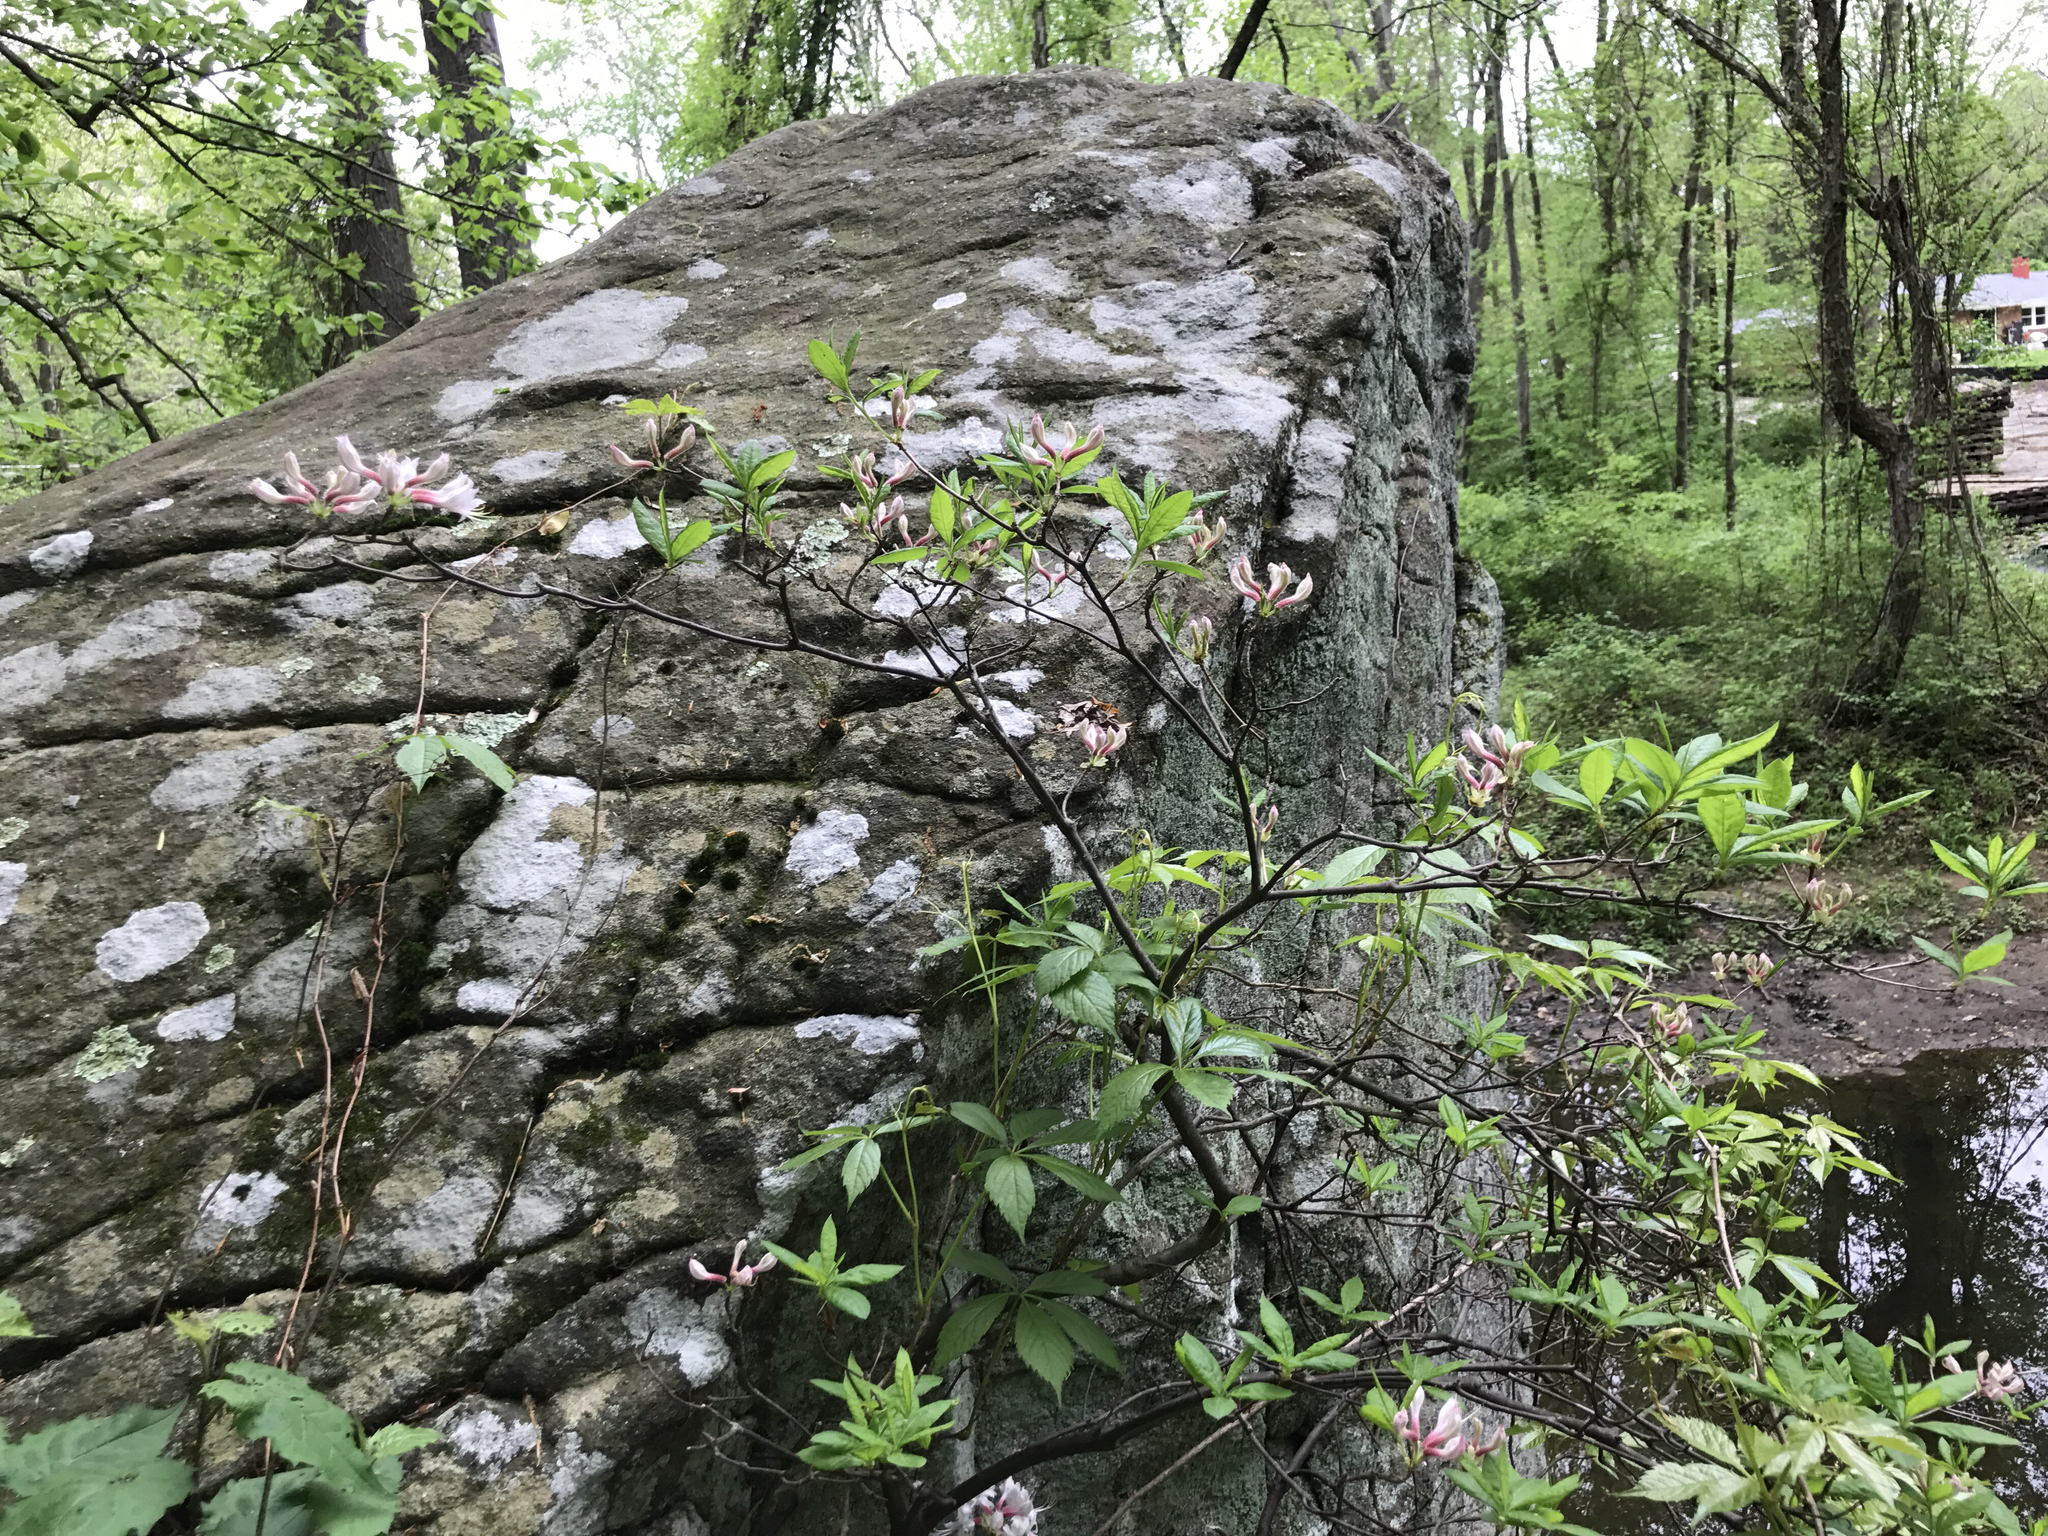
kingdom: Plantae
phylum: Tracheophyta
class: Magnoliopsida
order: Ericales
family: Ericaceae
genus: Rhododendron
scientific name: Rhododendron periclymenoides
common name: Election-pink
